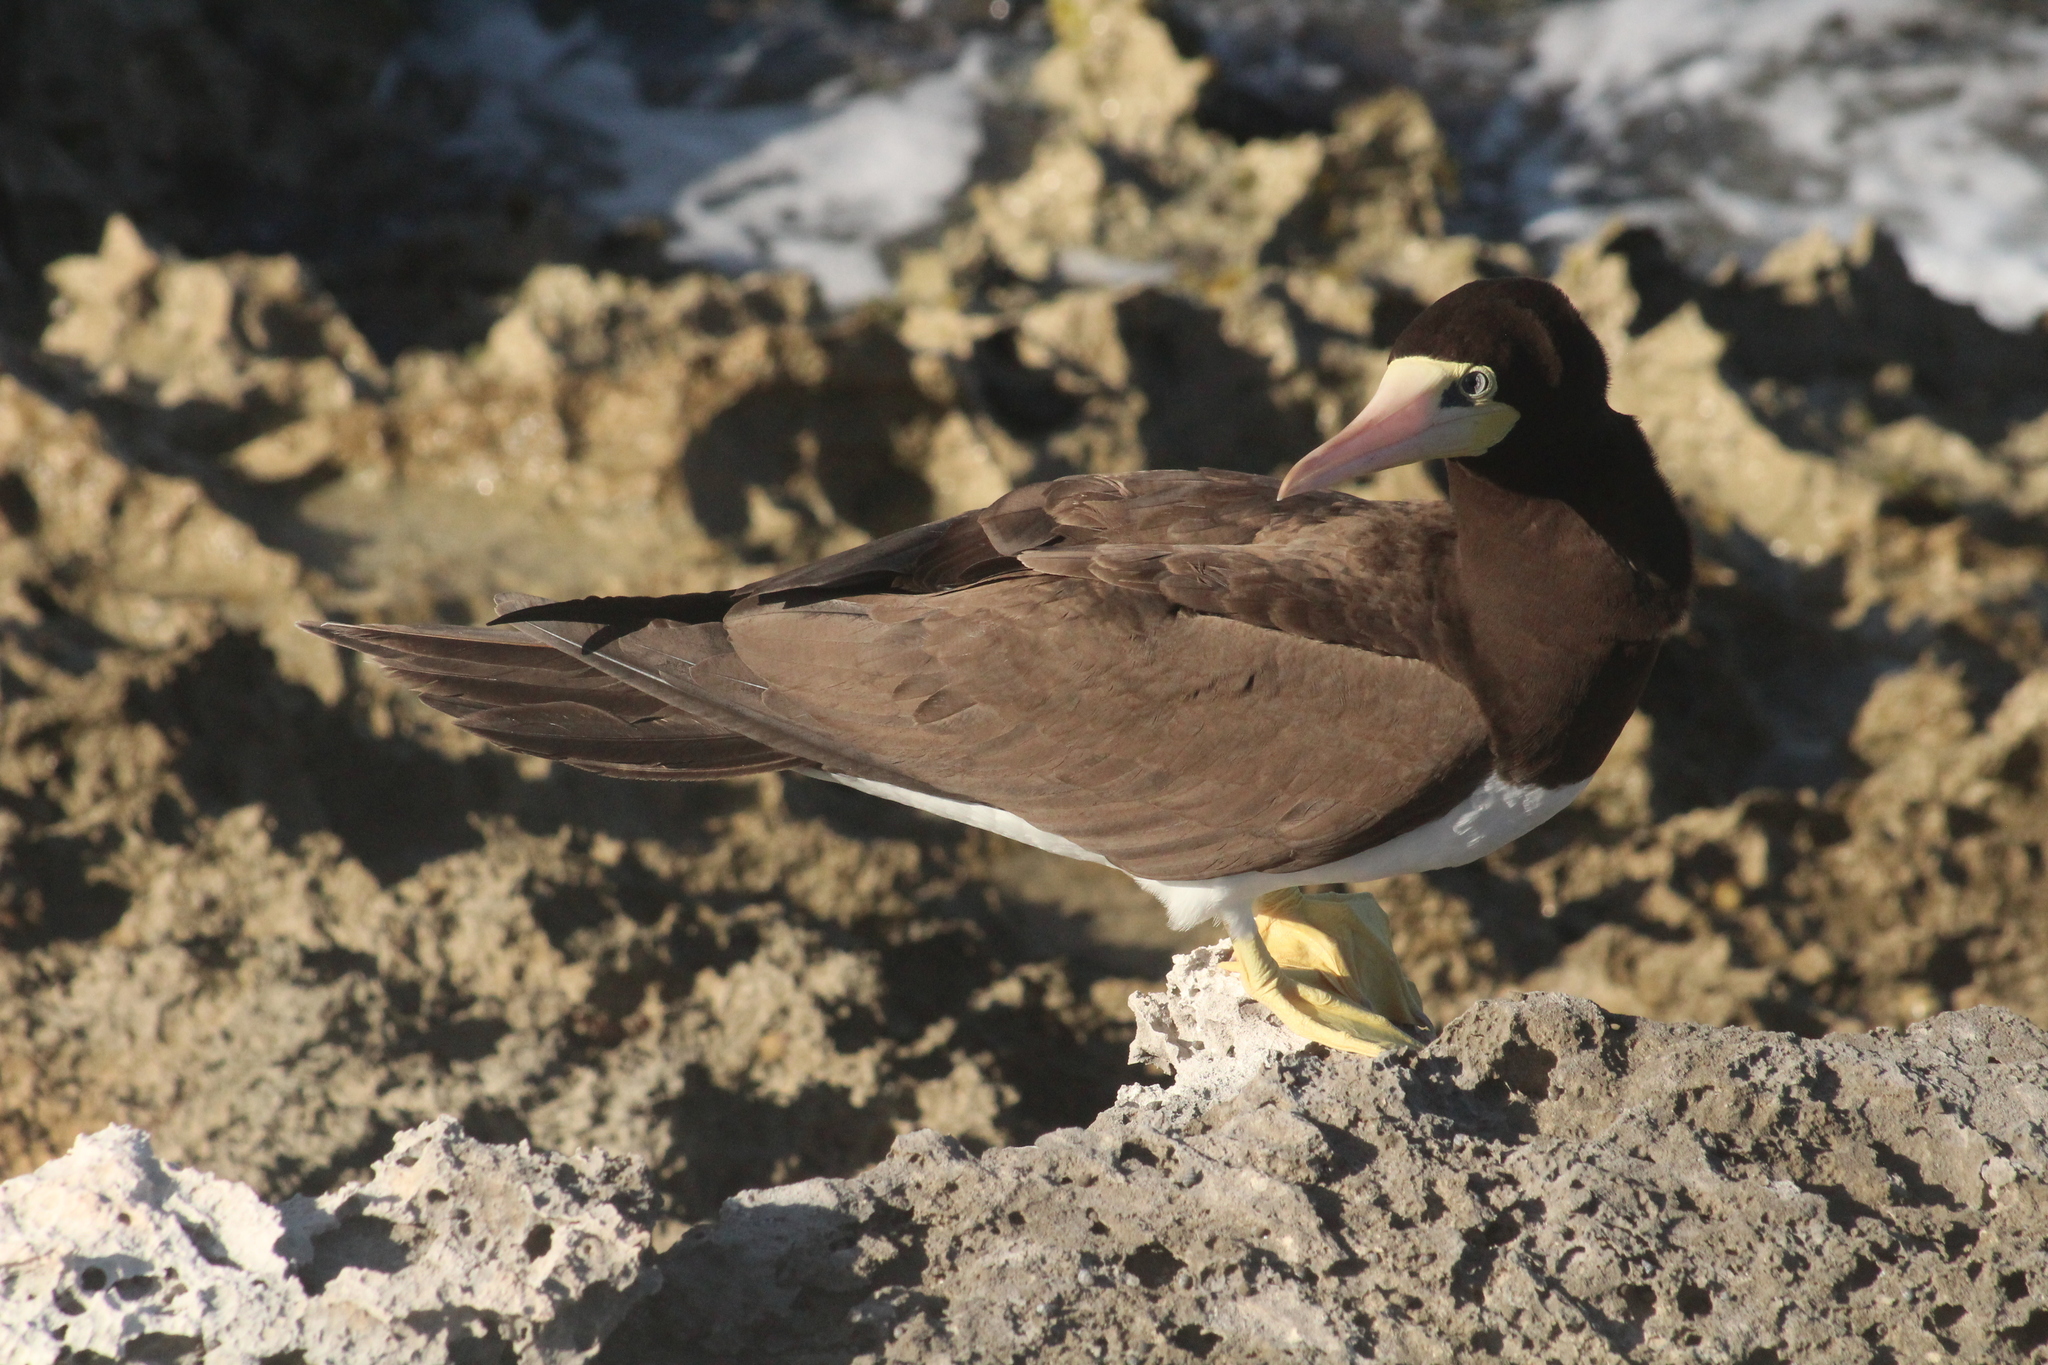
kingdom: Animalia
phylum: Chordata
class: Aves
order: Suliformes
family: Sulidae
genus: Sula
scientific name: Sula leucogaster
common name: Brown booby
